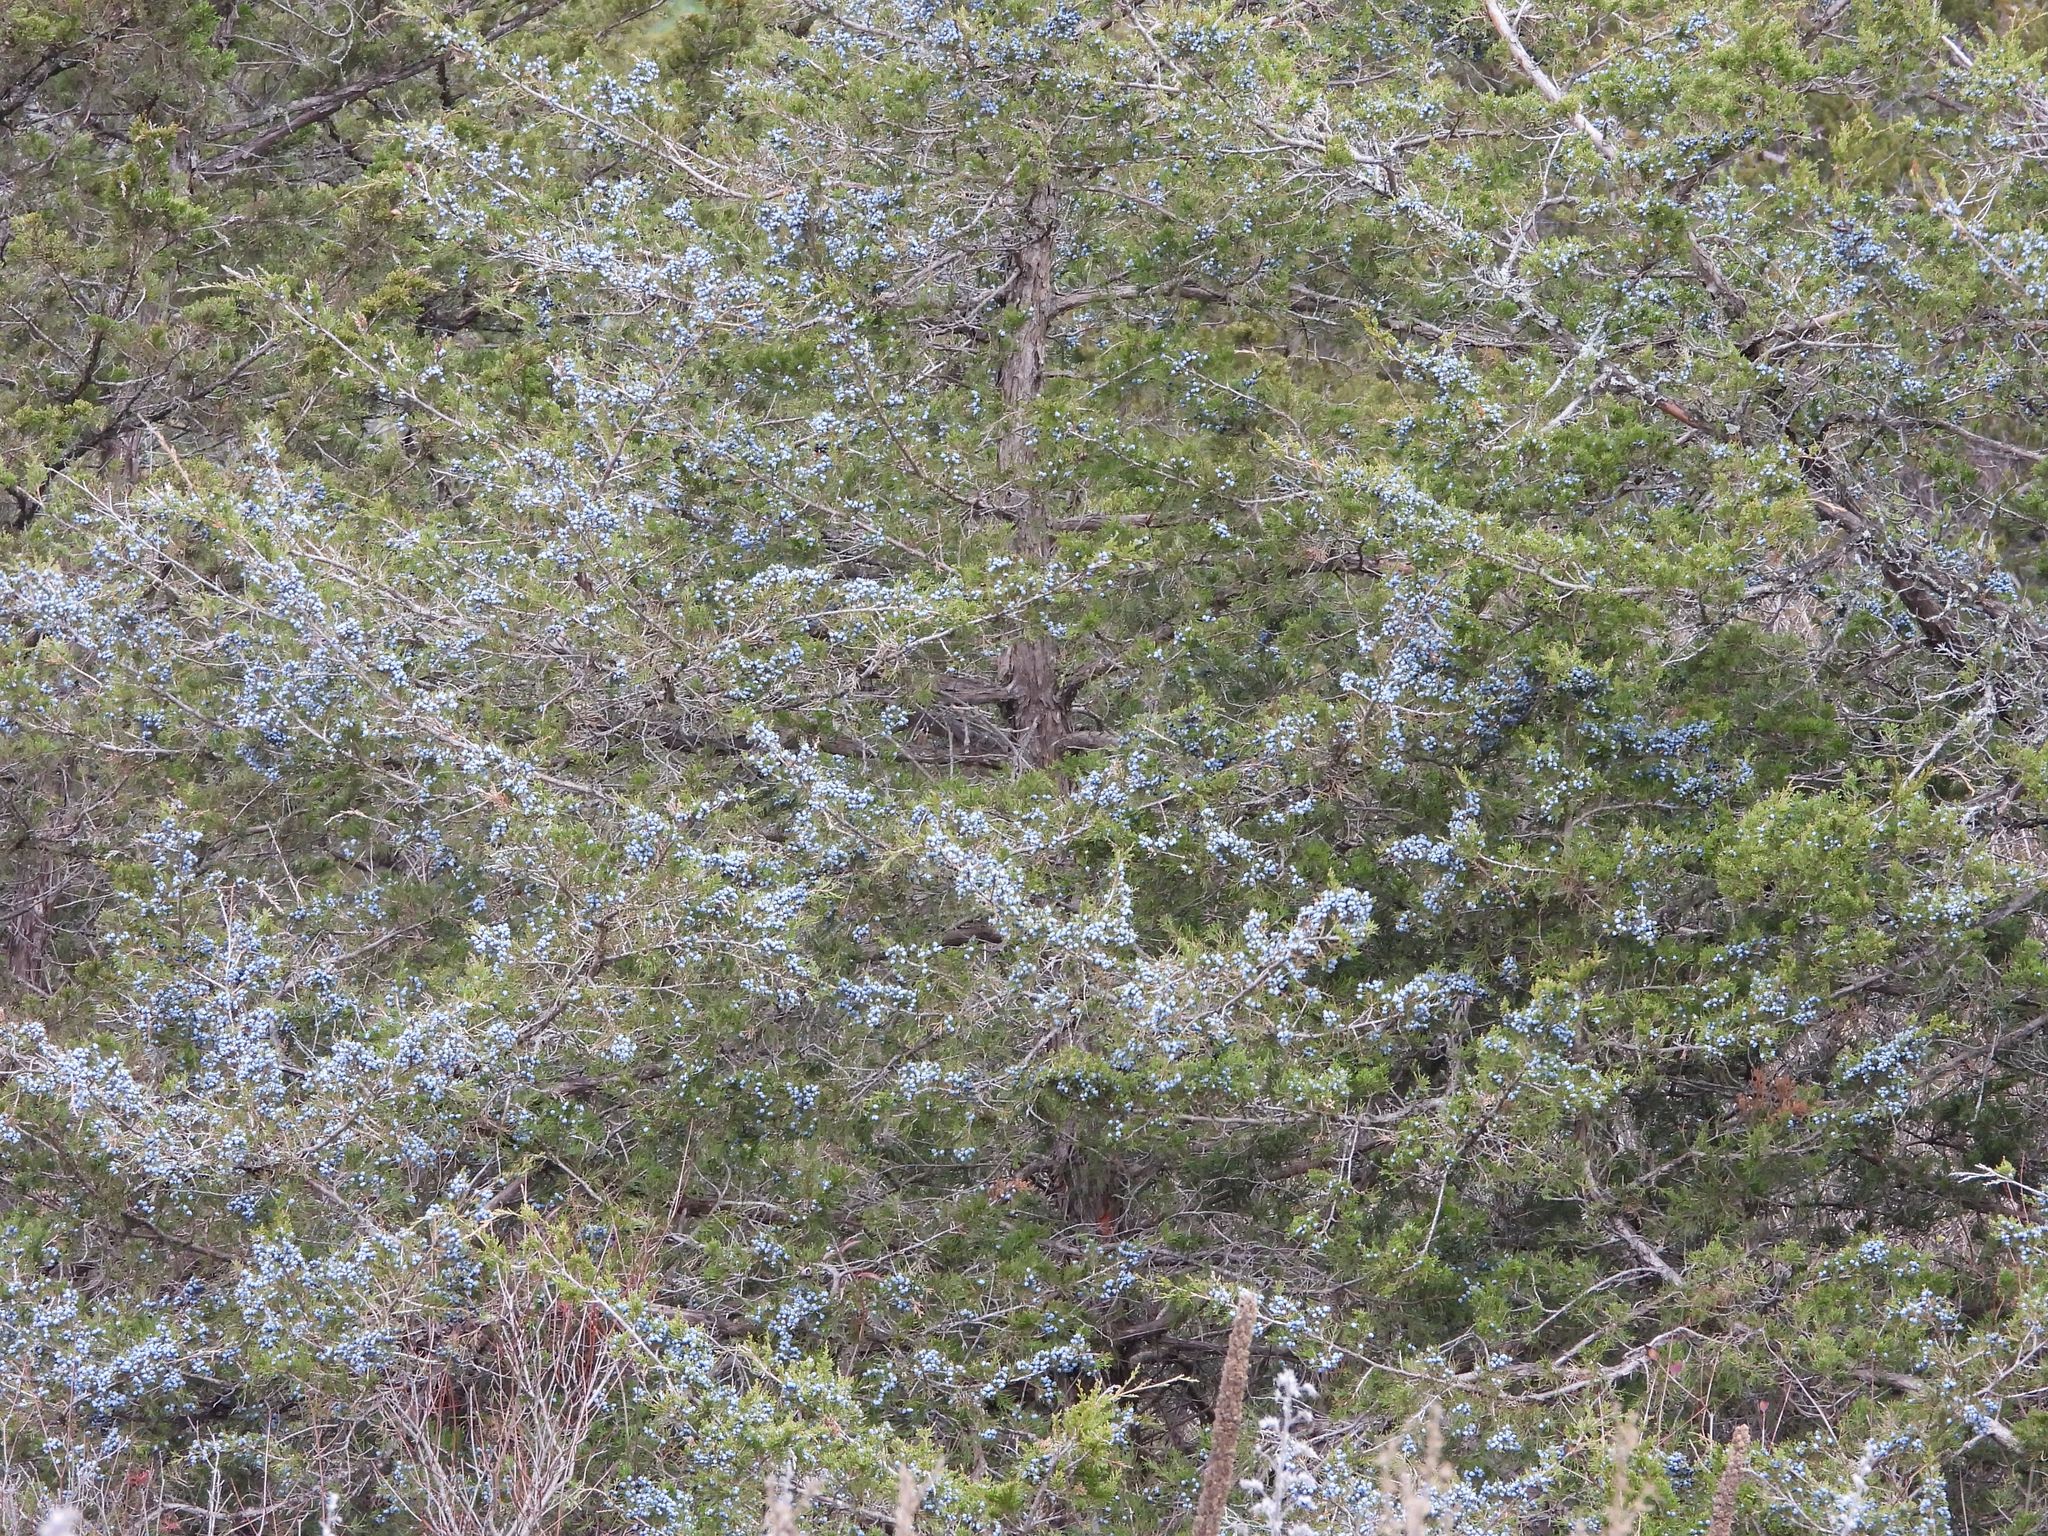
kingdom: Plantae
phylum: Tracheophyta
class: Pinopsida
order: Pinales
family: Cupressaceae
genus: Juniperus
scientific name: Juniperus virginiana
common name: Red juniper
